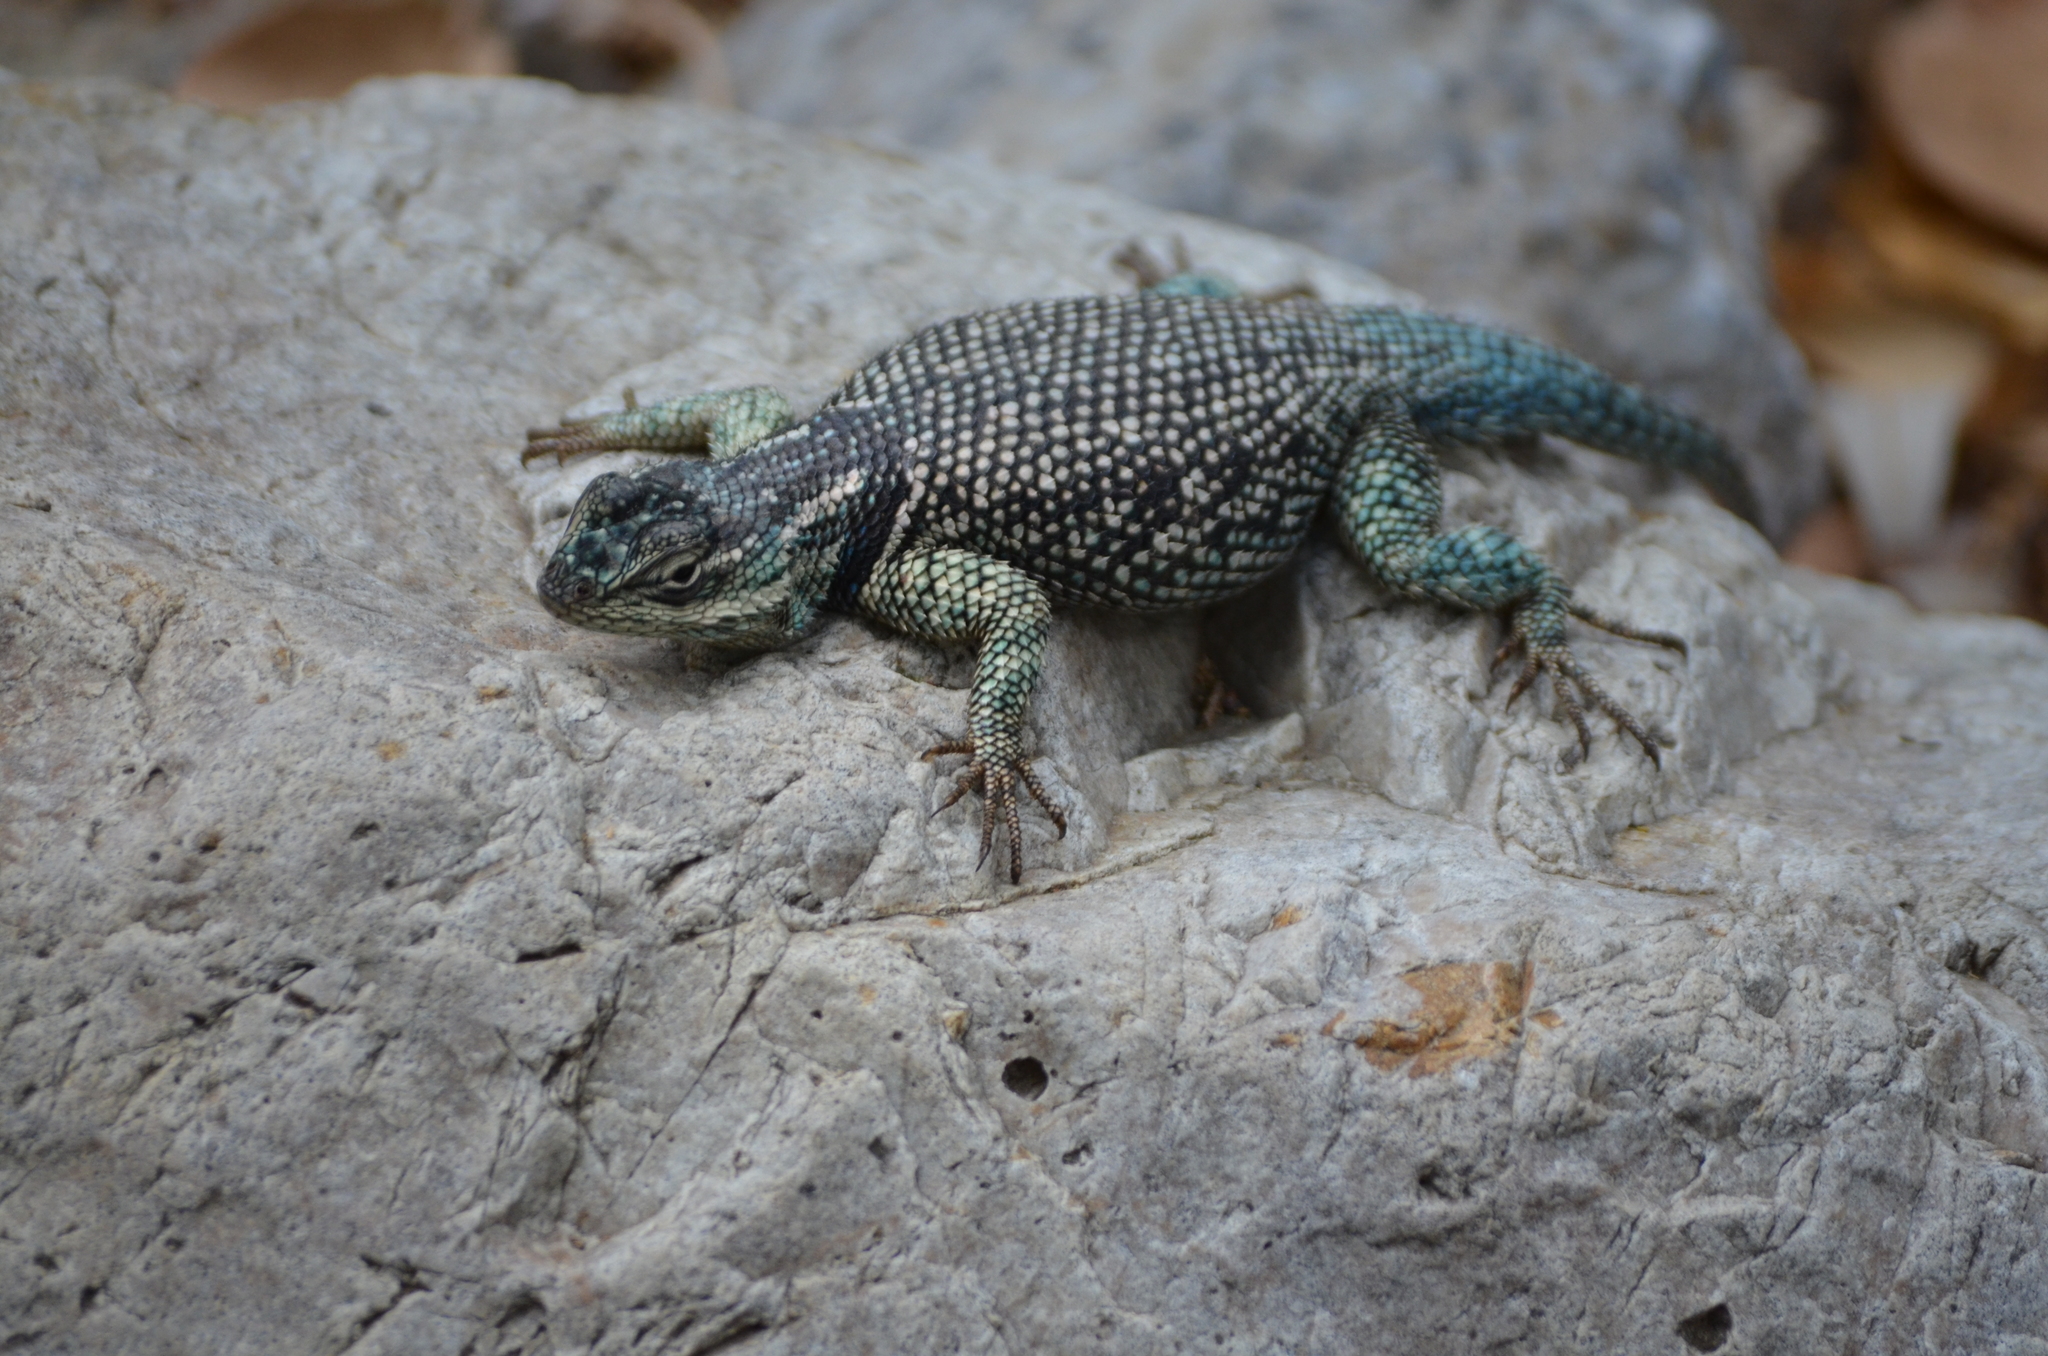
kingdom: Animalia
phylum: Chordata
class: Squamata
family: Phrynosomatidae
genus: Sceloporus
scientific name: Sceloporus jarrovii
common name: Yarrow's spiny lizard
